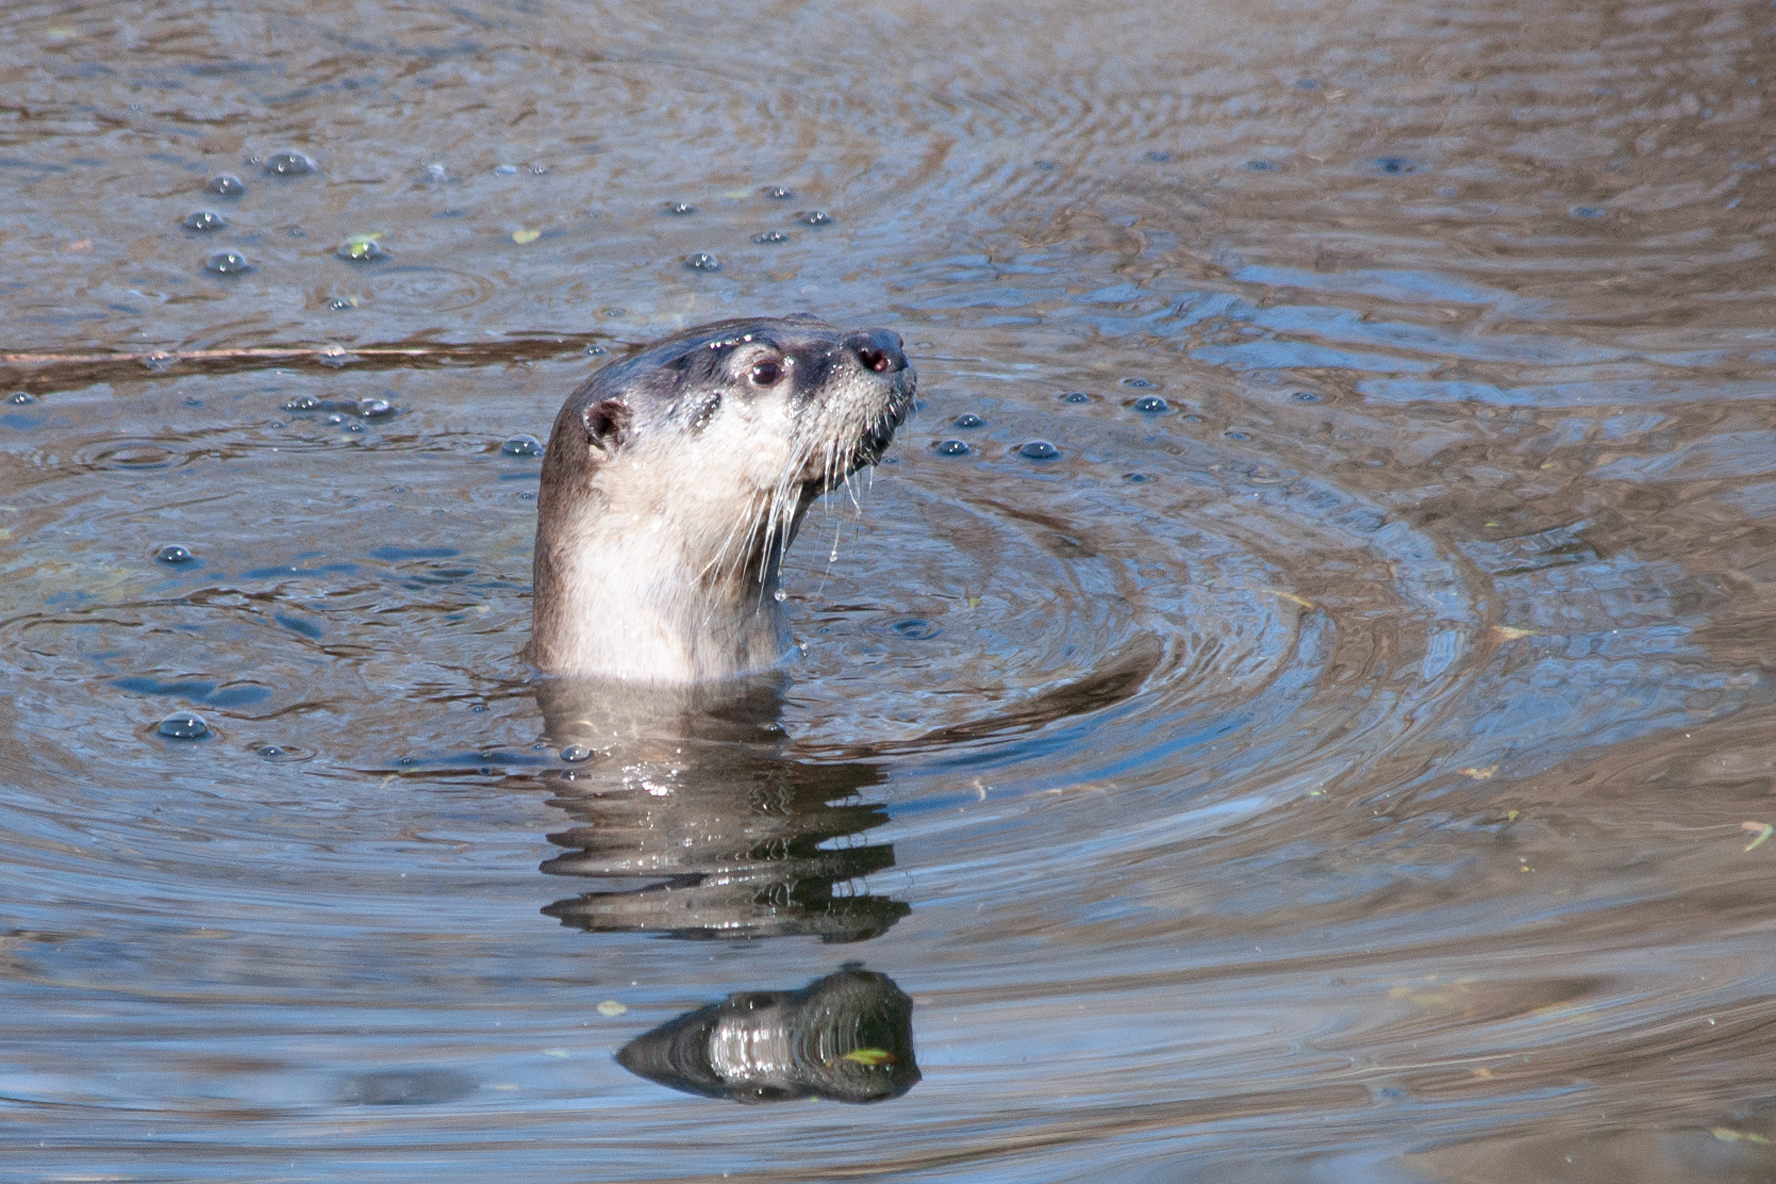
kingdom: Animalia
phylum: Chordata
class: Mammalia
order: Carnivora
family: Mustelidae
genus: Lontra
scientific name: Lontra canadensis
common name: North american river otter
